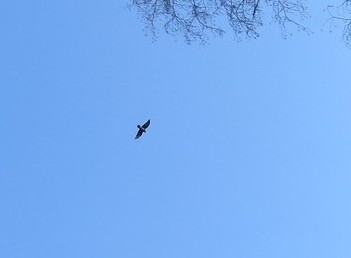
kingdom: Animalia
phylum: Chordata
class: Aves
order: Passeriformes
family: Corvidae
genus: Corvus
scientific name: Corvus corax
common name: Common raven
